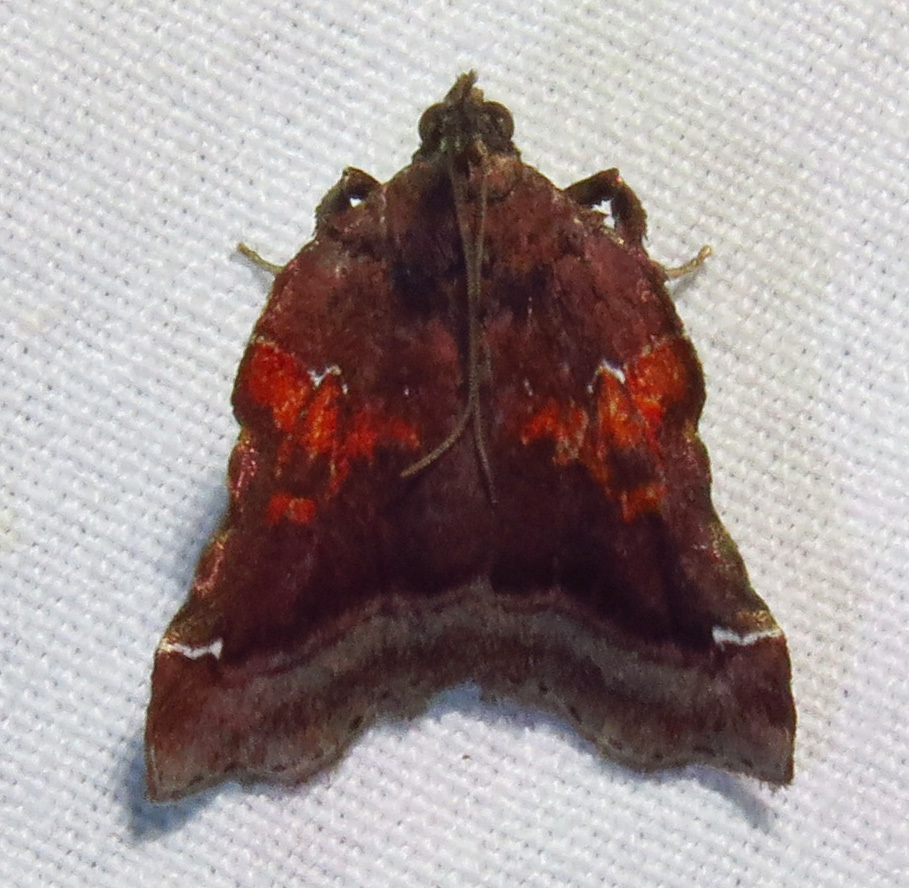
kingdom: Animalia
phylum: Arthropoda
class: Insecta
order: Lepidoptera
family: Pyralidae
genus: Clydonopteron
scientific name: Clydonopteron sacculana
